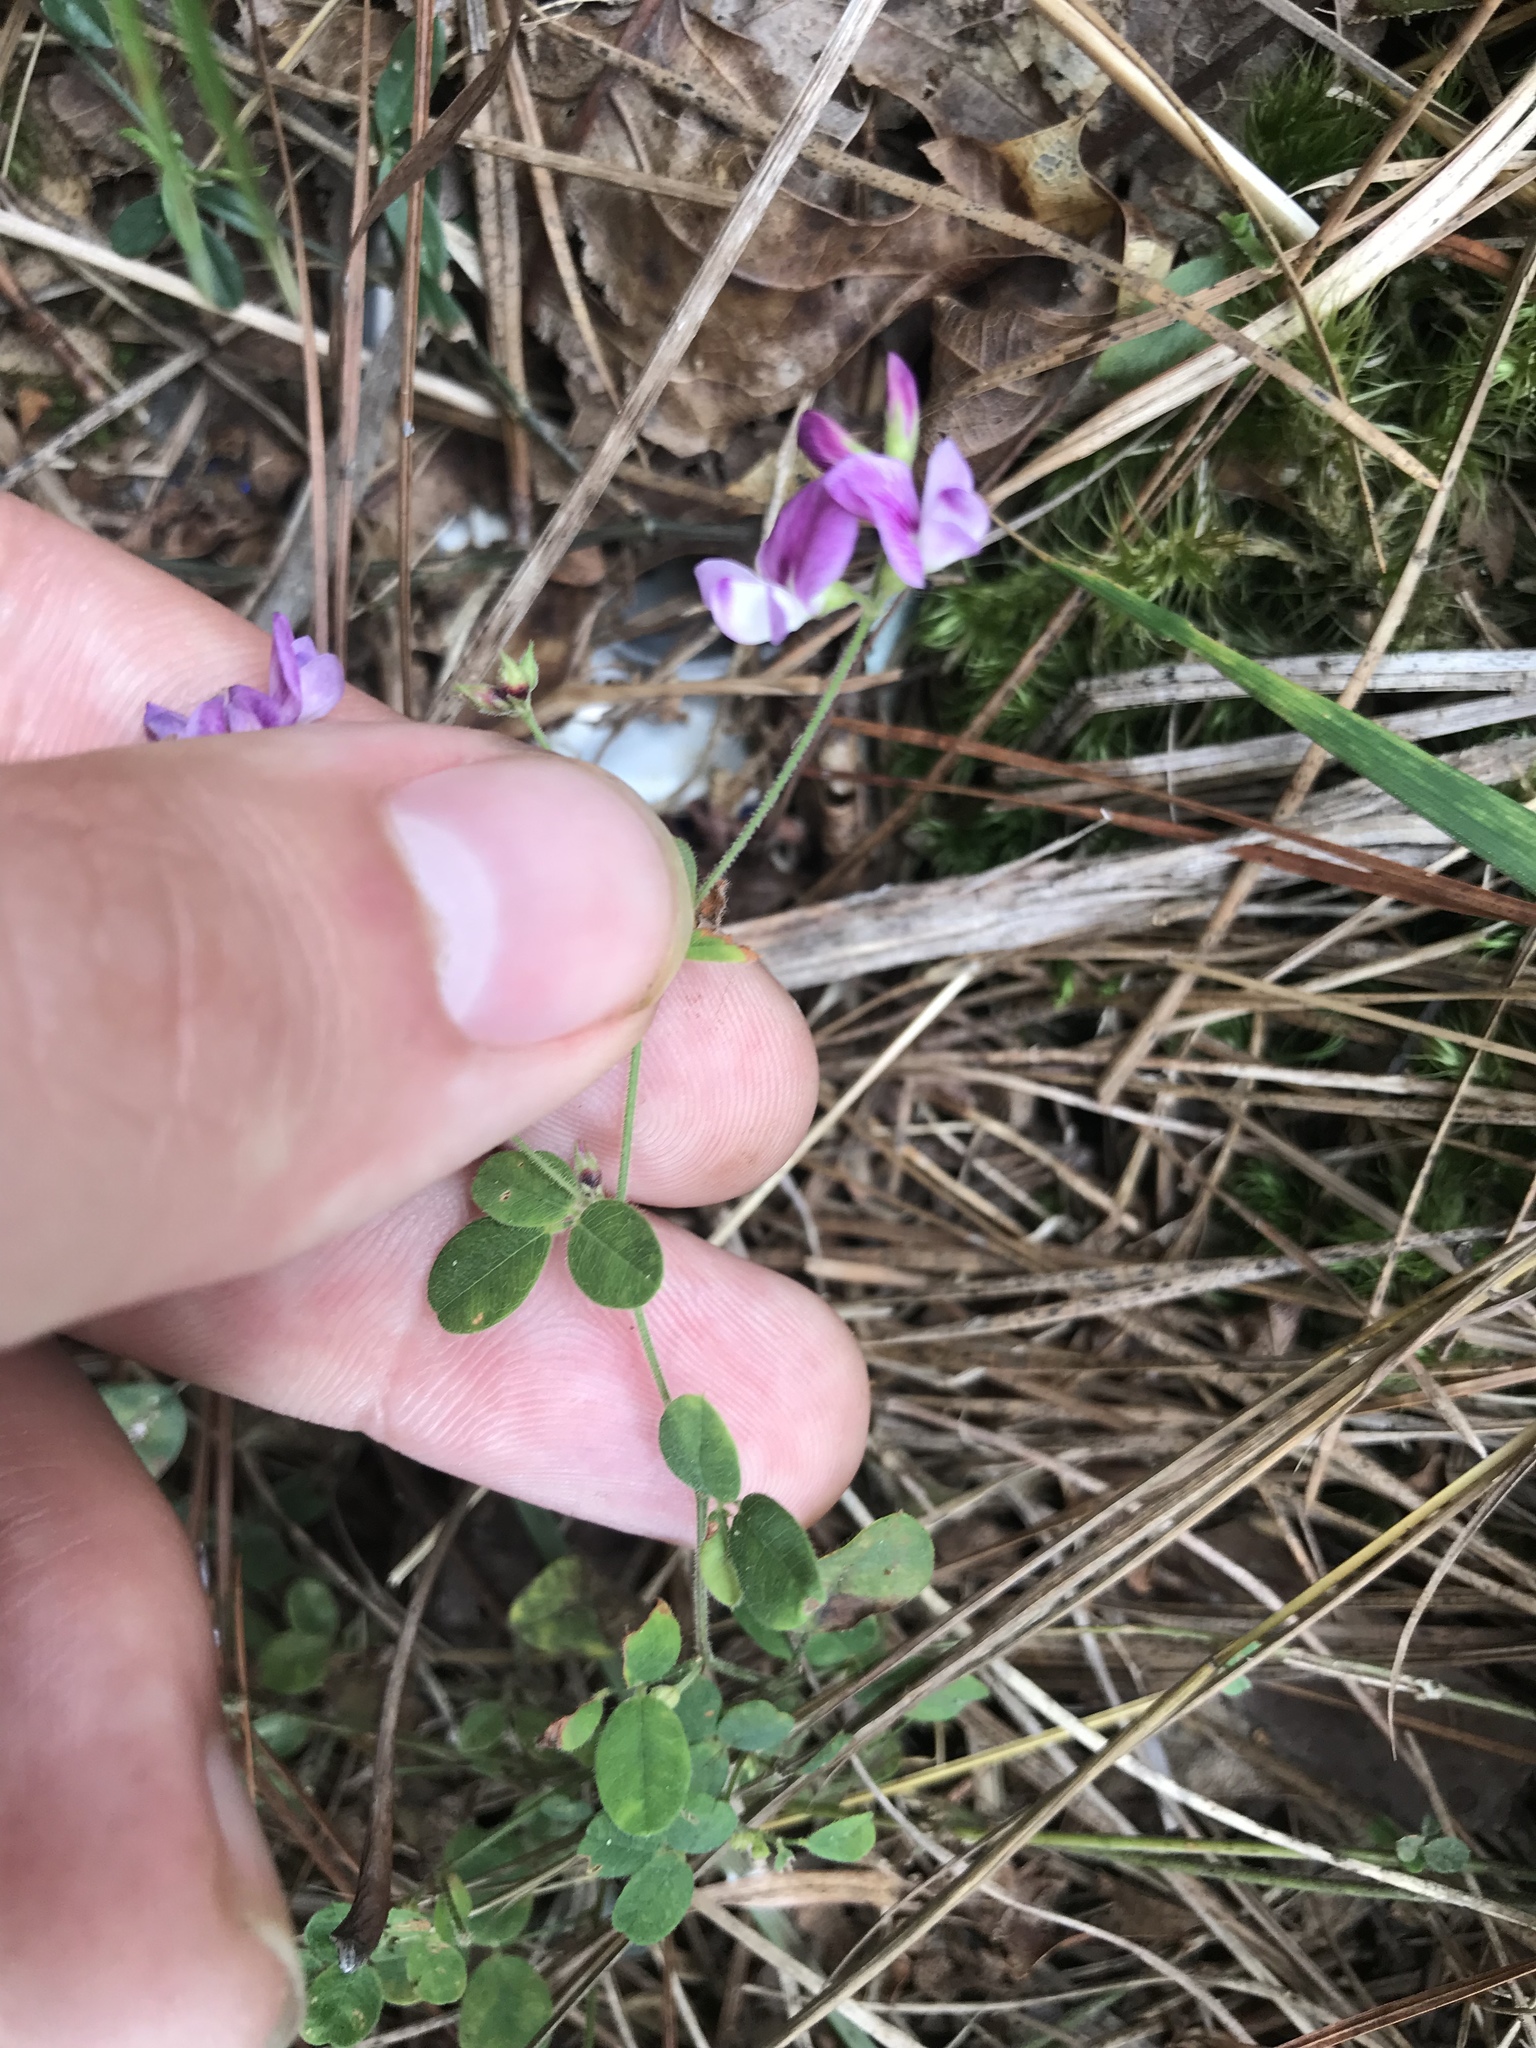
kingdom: Plantae
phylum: Tracheophyta
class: Magnoliopsida
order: Fabales
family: Fabaceae
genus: Lespedeza
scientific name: Lespedeza procumbens
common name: Downy trailing bush-clover
